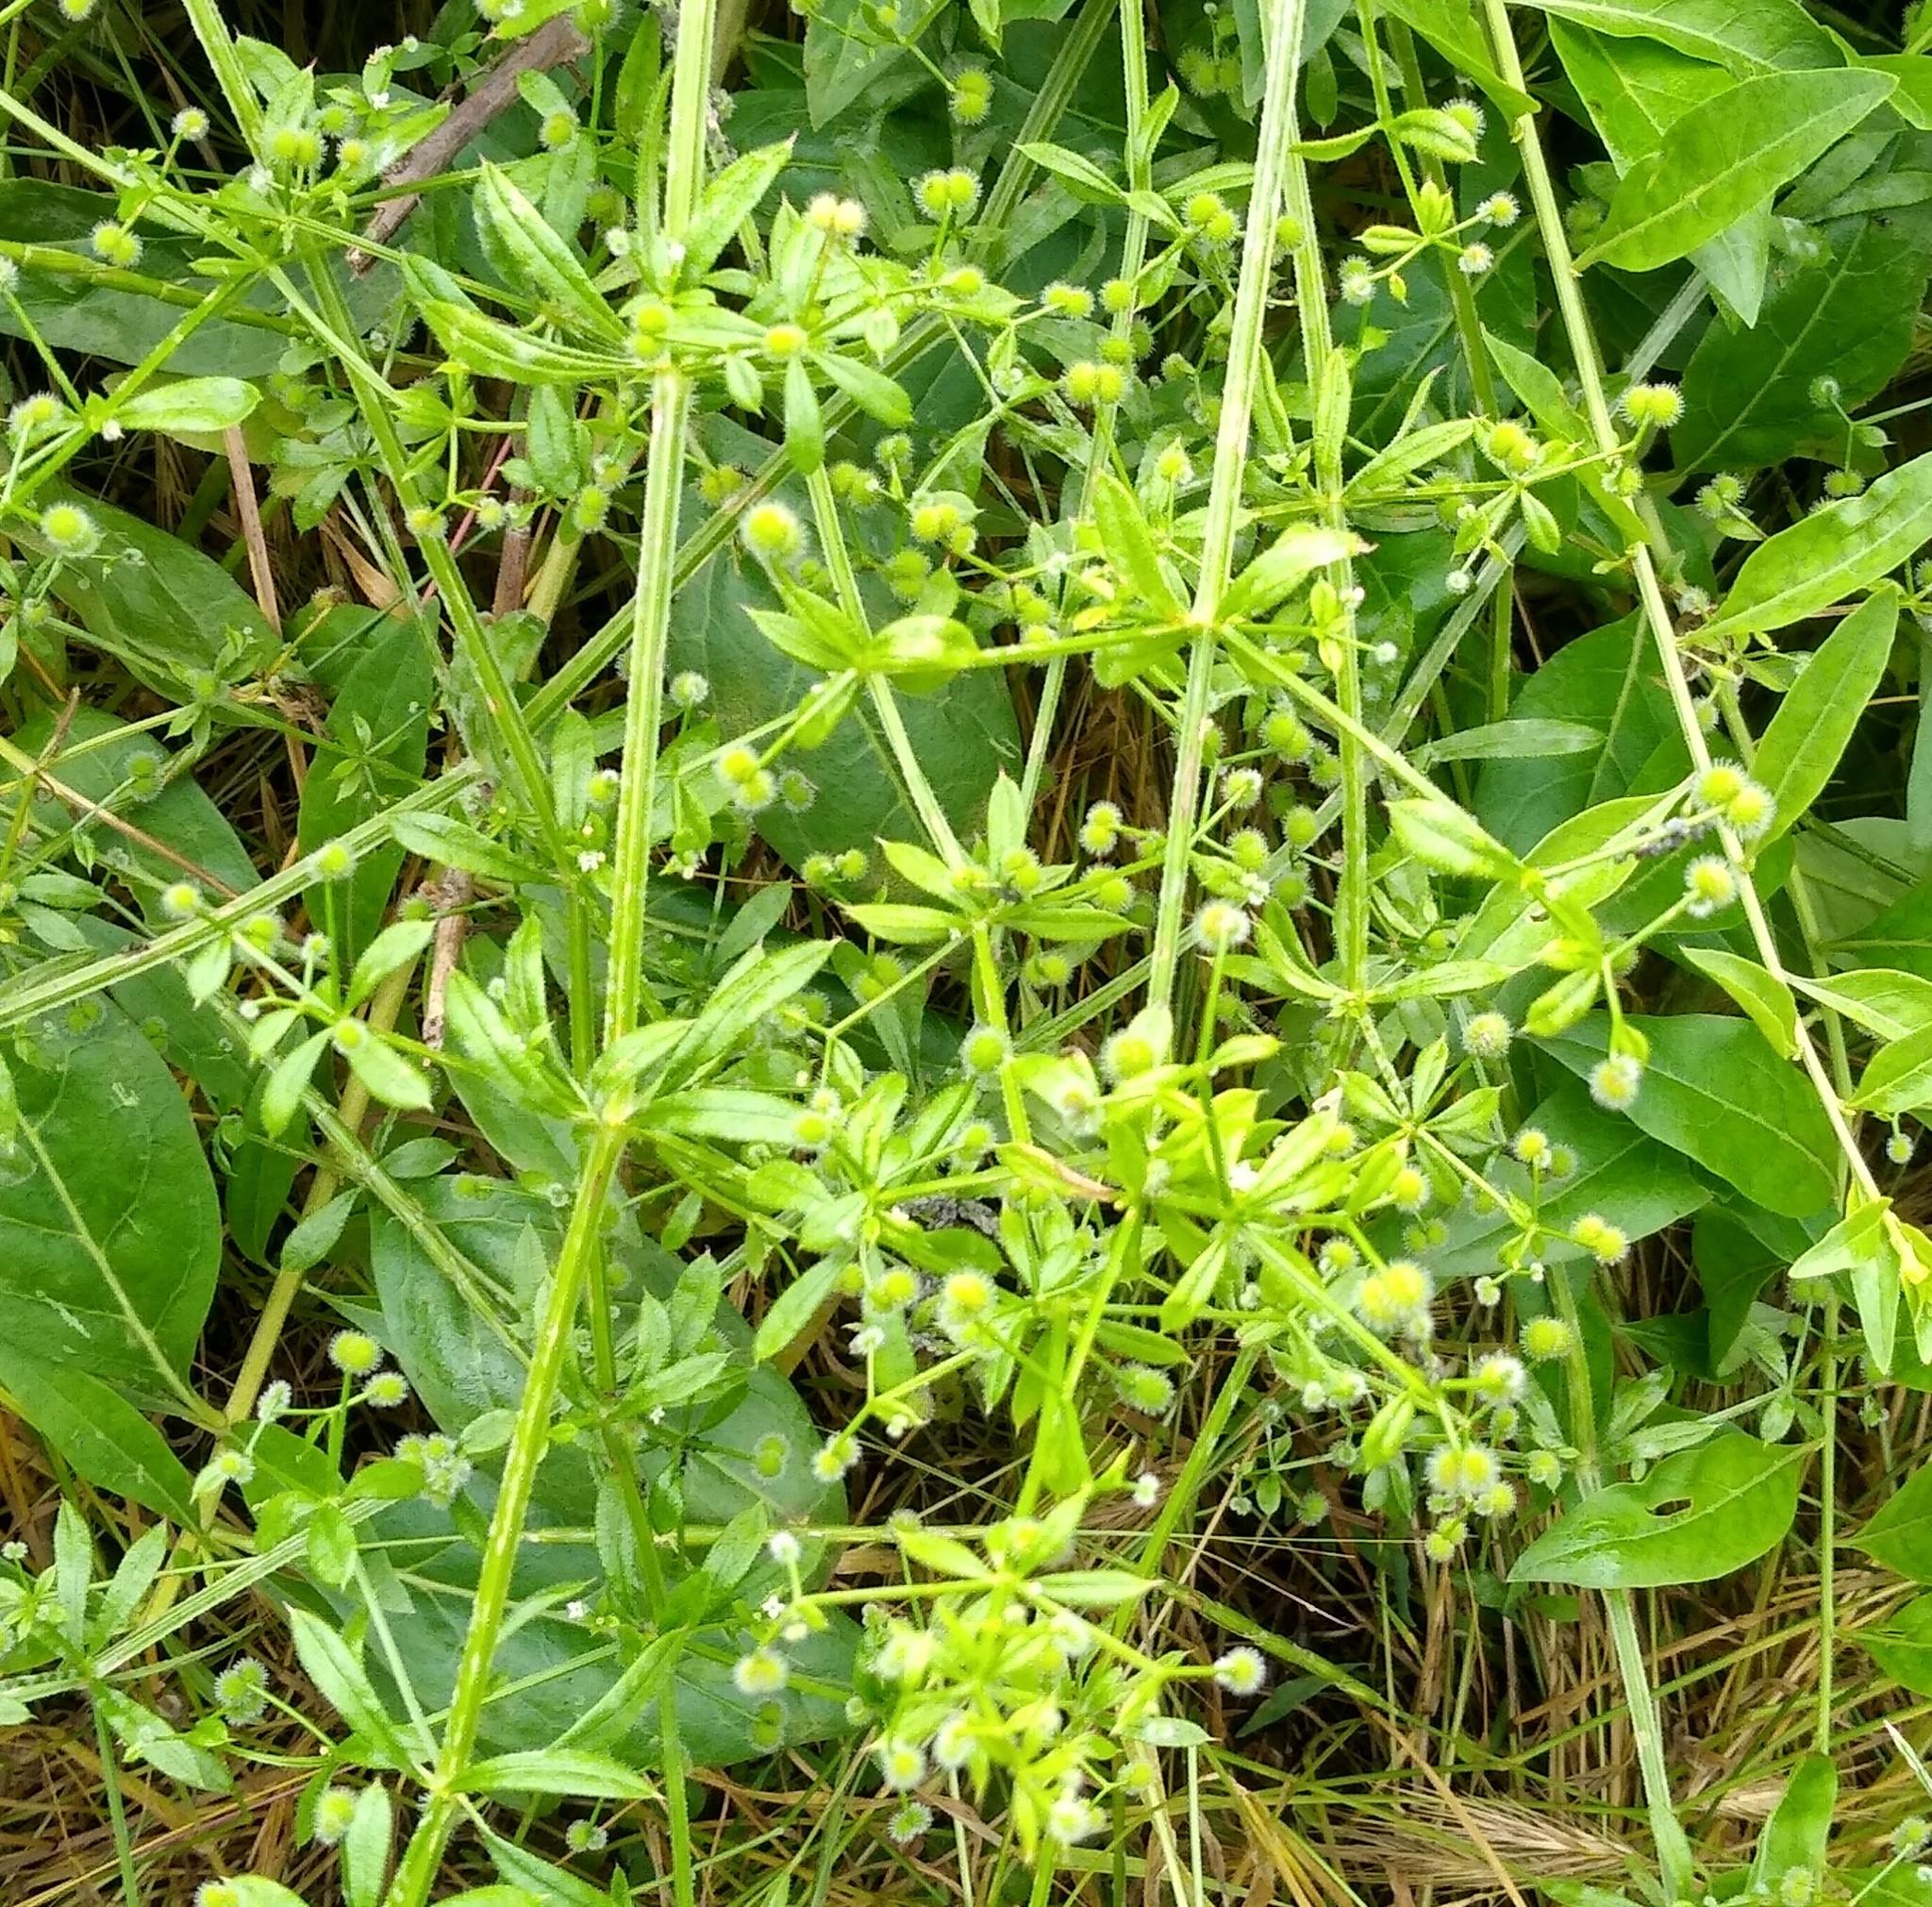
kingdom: Plantae
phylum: Tracheophyta
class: Magnoliopsida
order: Gentianales
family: Rubiaceae
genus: Galium
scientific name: Galium aparine
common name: Cleavers
